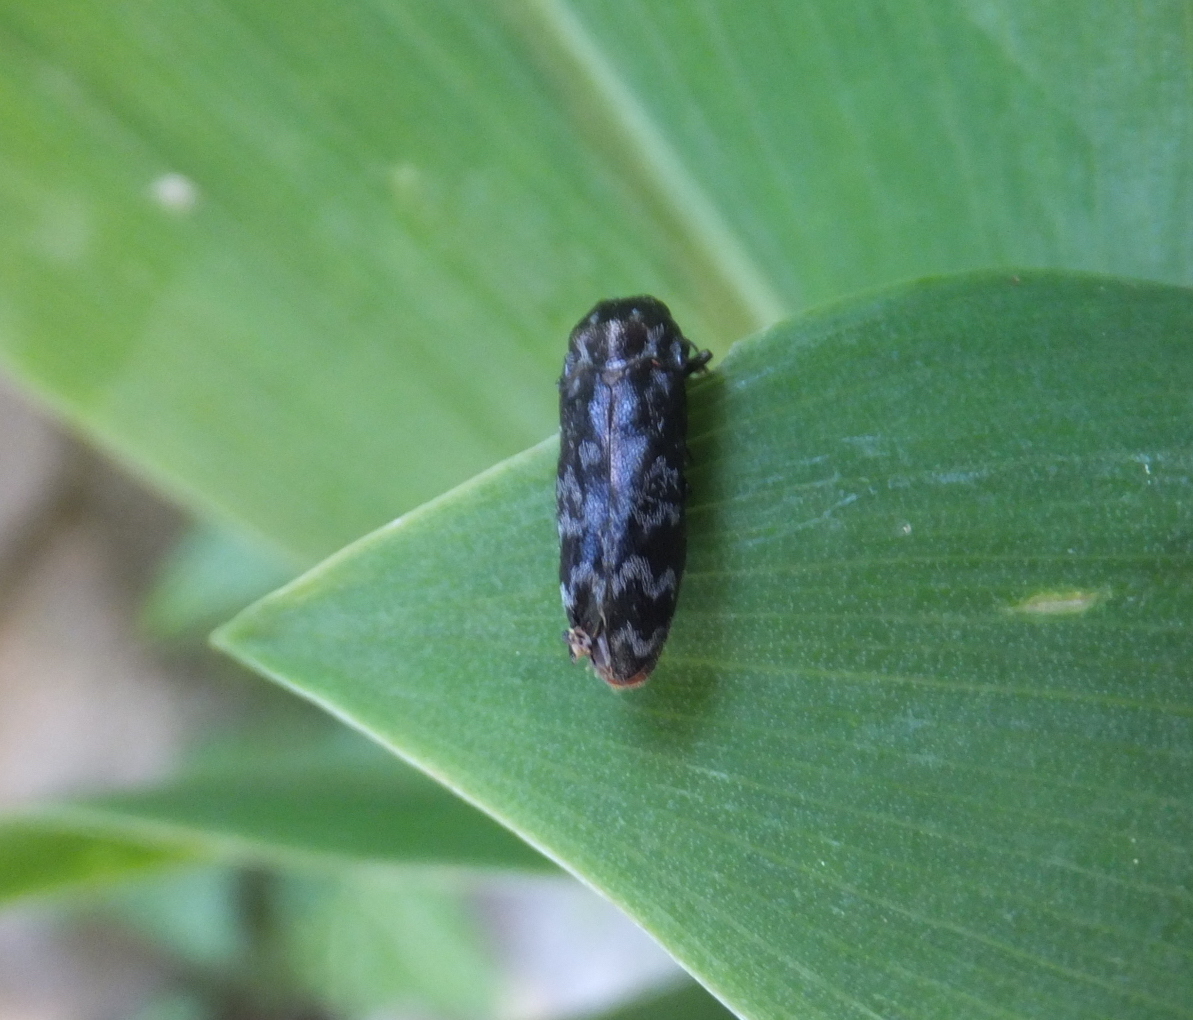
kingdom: Animalia
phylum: Arthropoda
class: Insecta
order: Coleoptera
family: Buprestidae
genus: Coraebus
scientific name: Coraebus rubi
